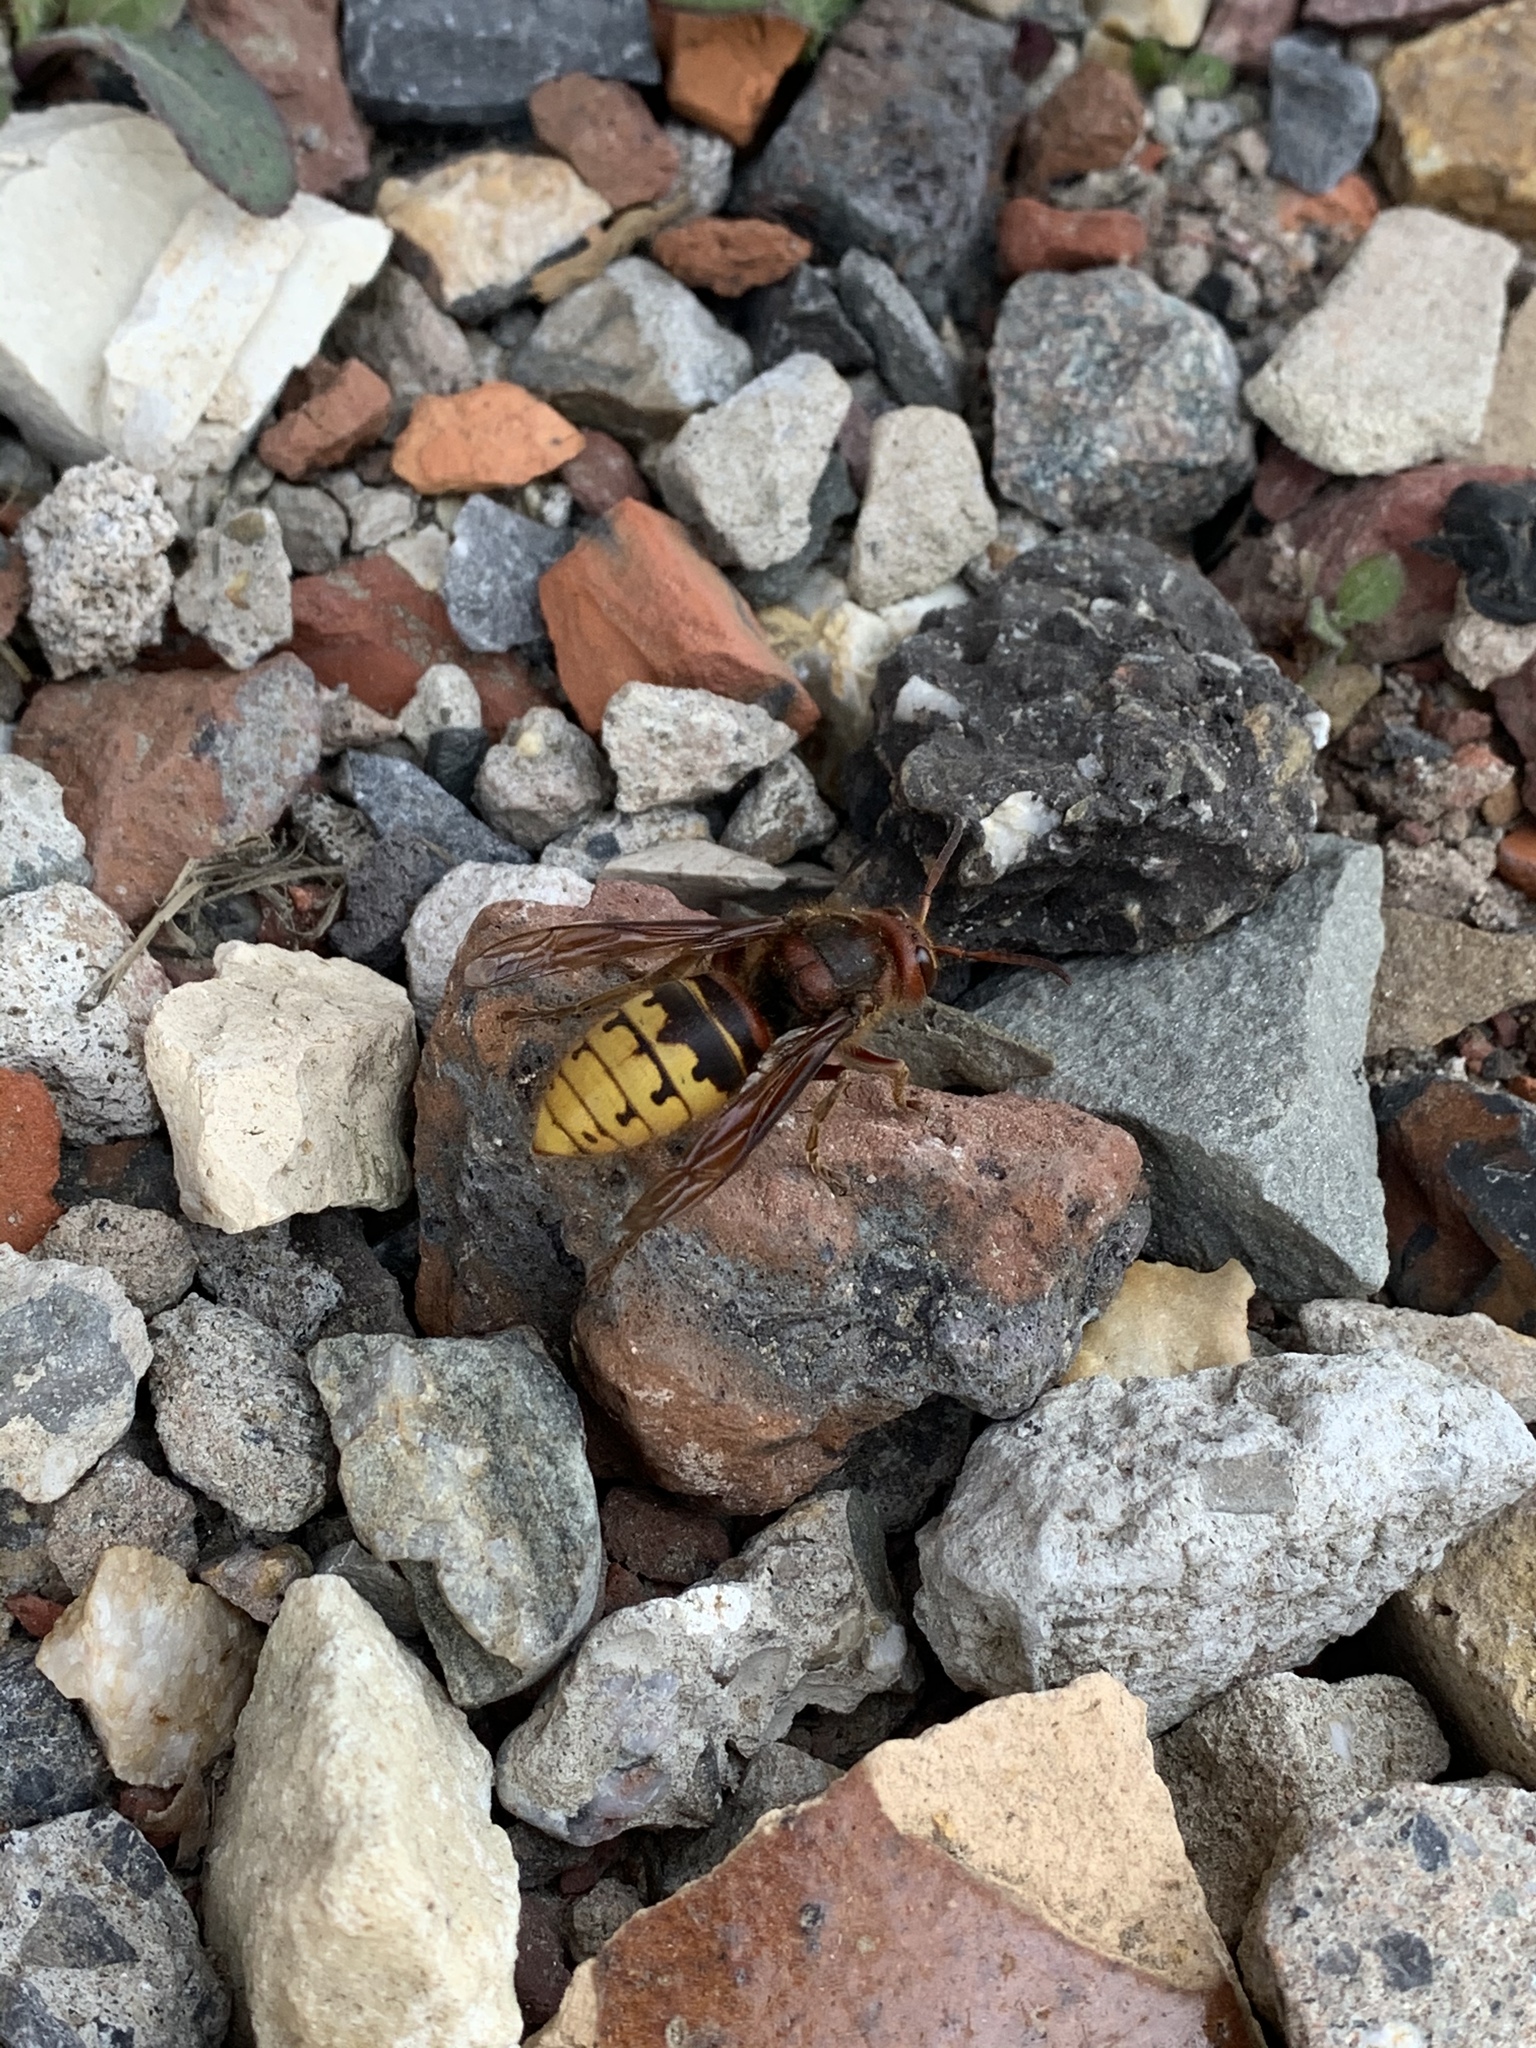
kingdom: Animalia
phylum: Arthropoda
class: Insecta
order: Hymenoptera
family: Vespidae
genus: Vespa
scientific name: Vespa crabro
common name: Hornet
